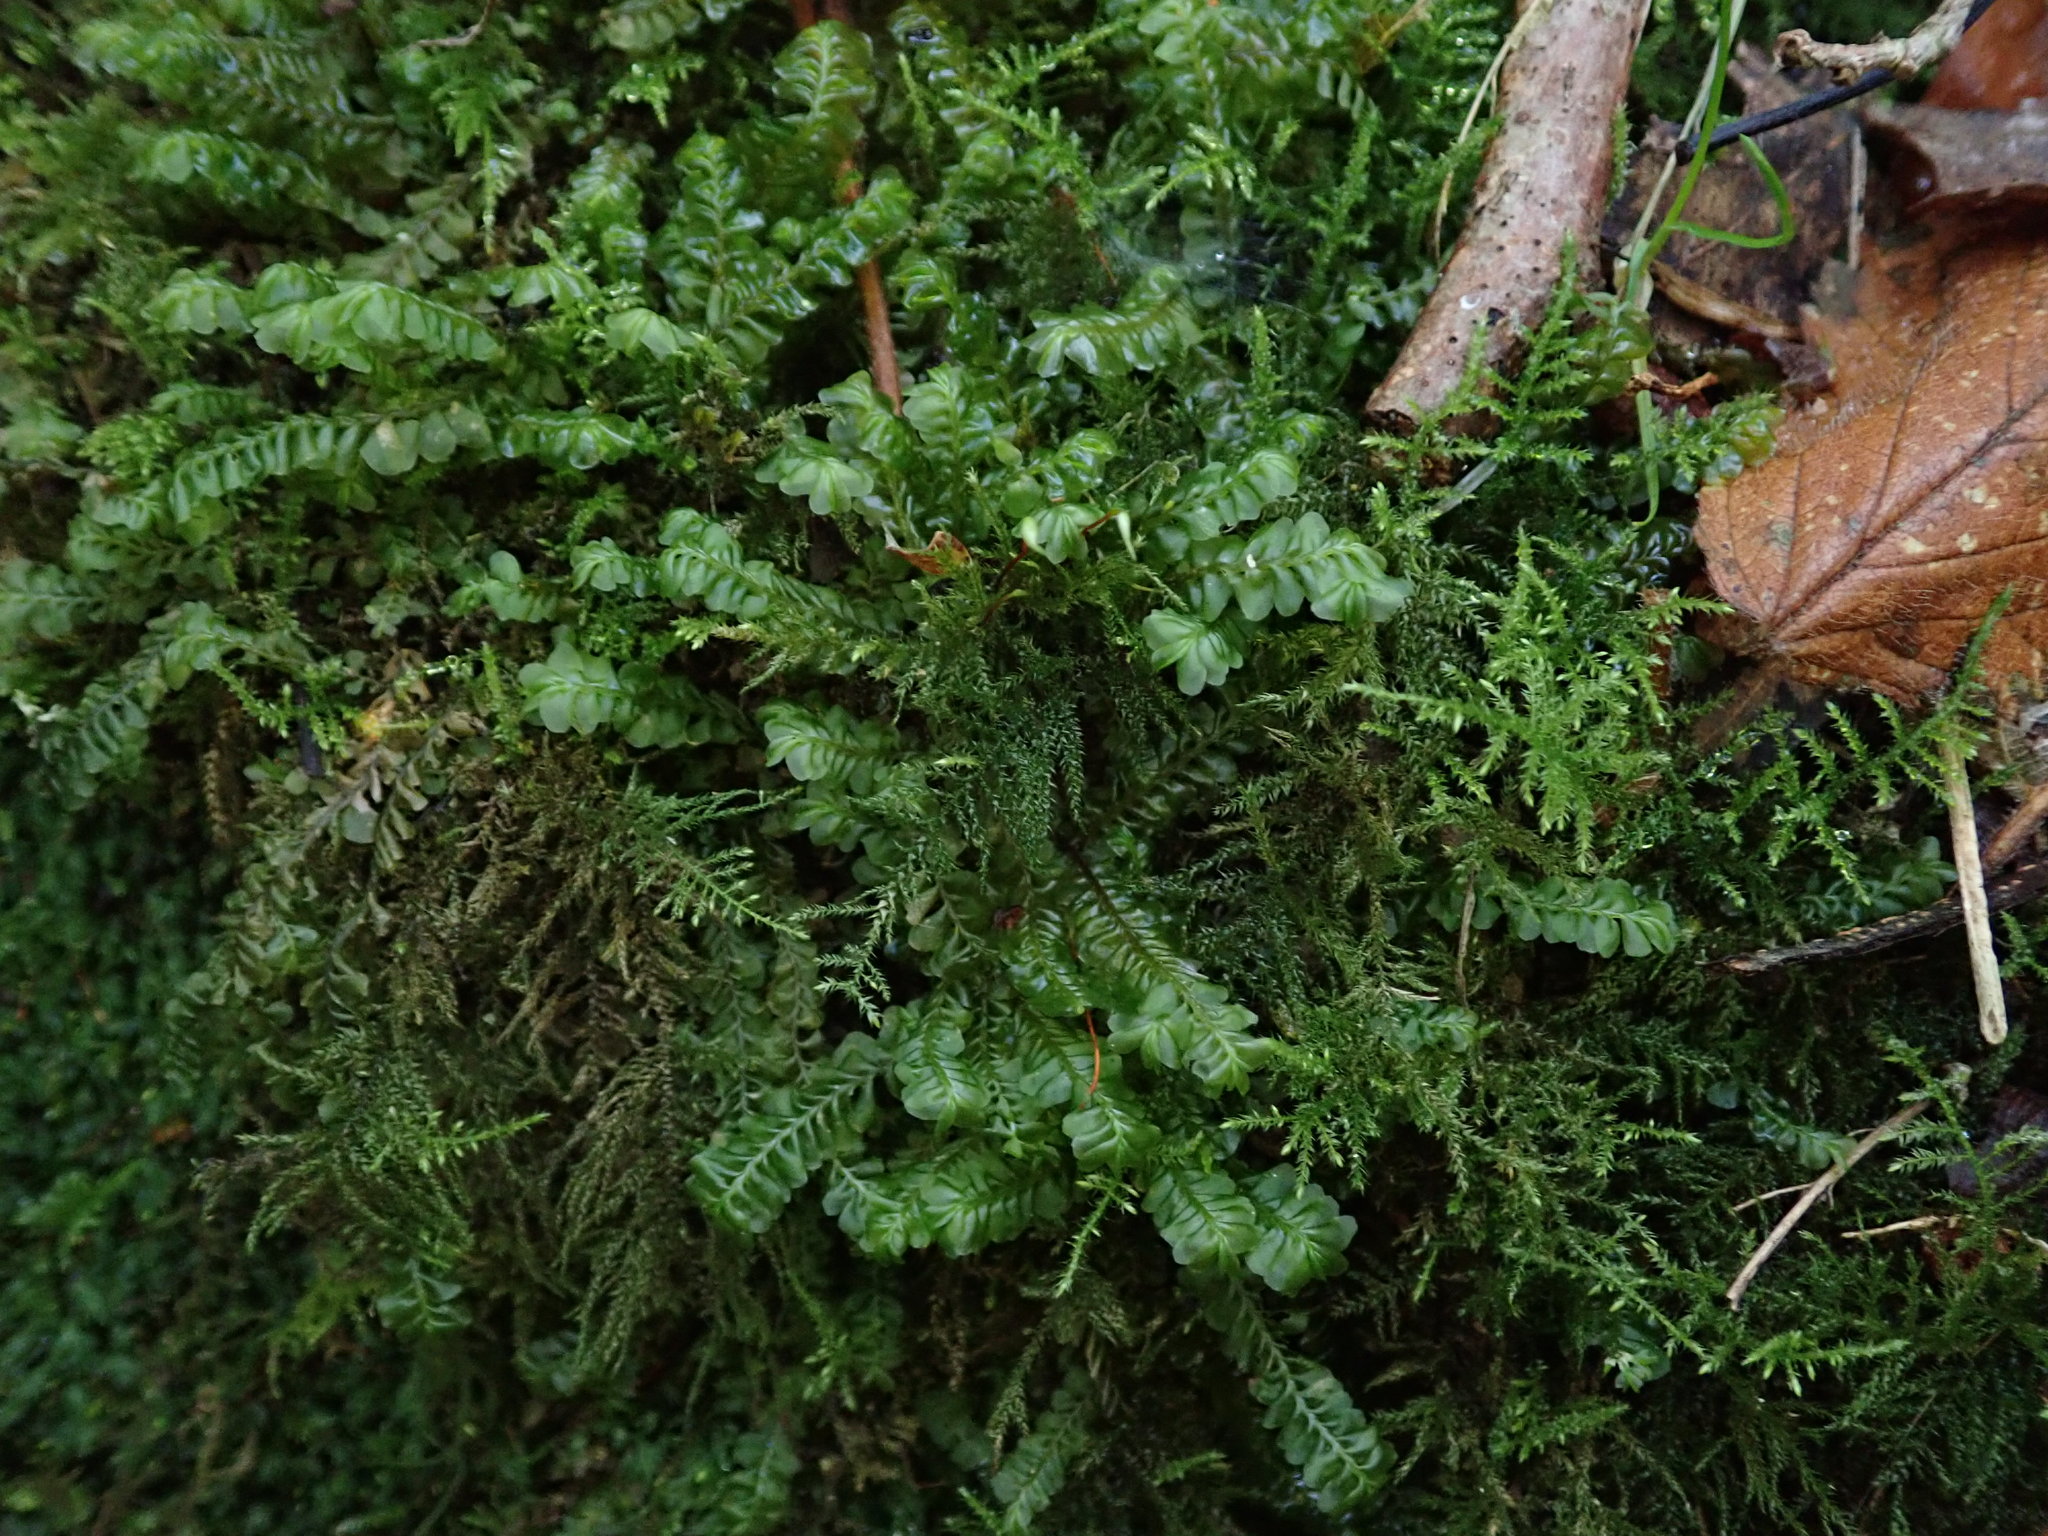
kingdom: Plantae
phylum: Marchantiophyta
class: Jungermanniopsida
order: Jungermanniales
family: Plagiochilaceae
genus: Plagiochila
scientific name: Plagiochila asplenioides
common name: Greater featherwort
